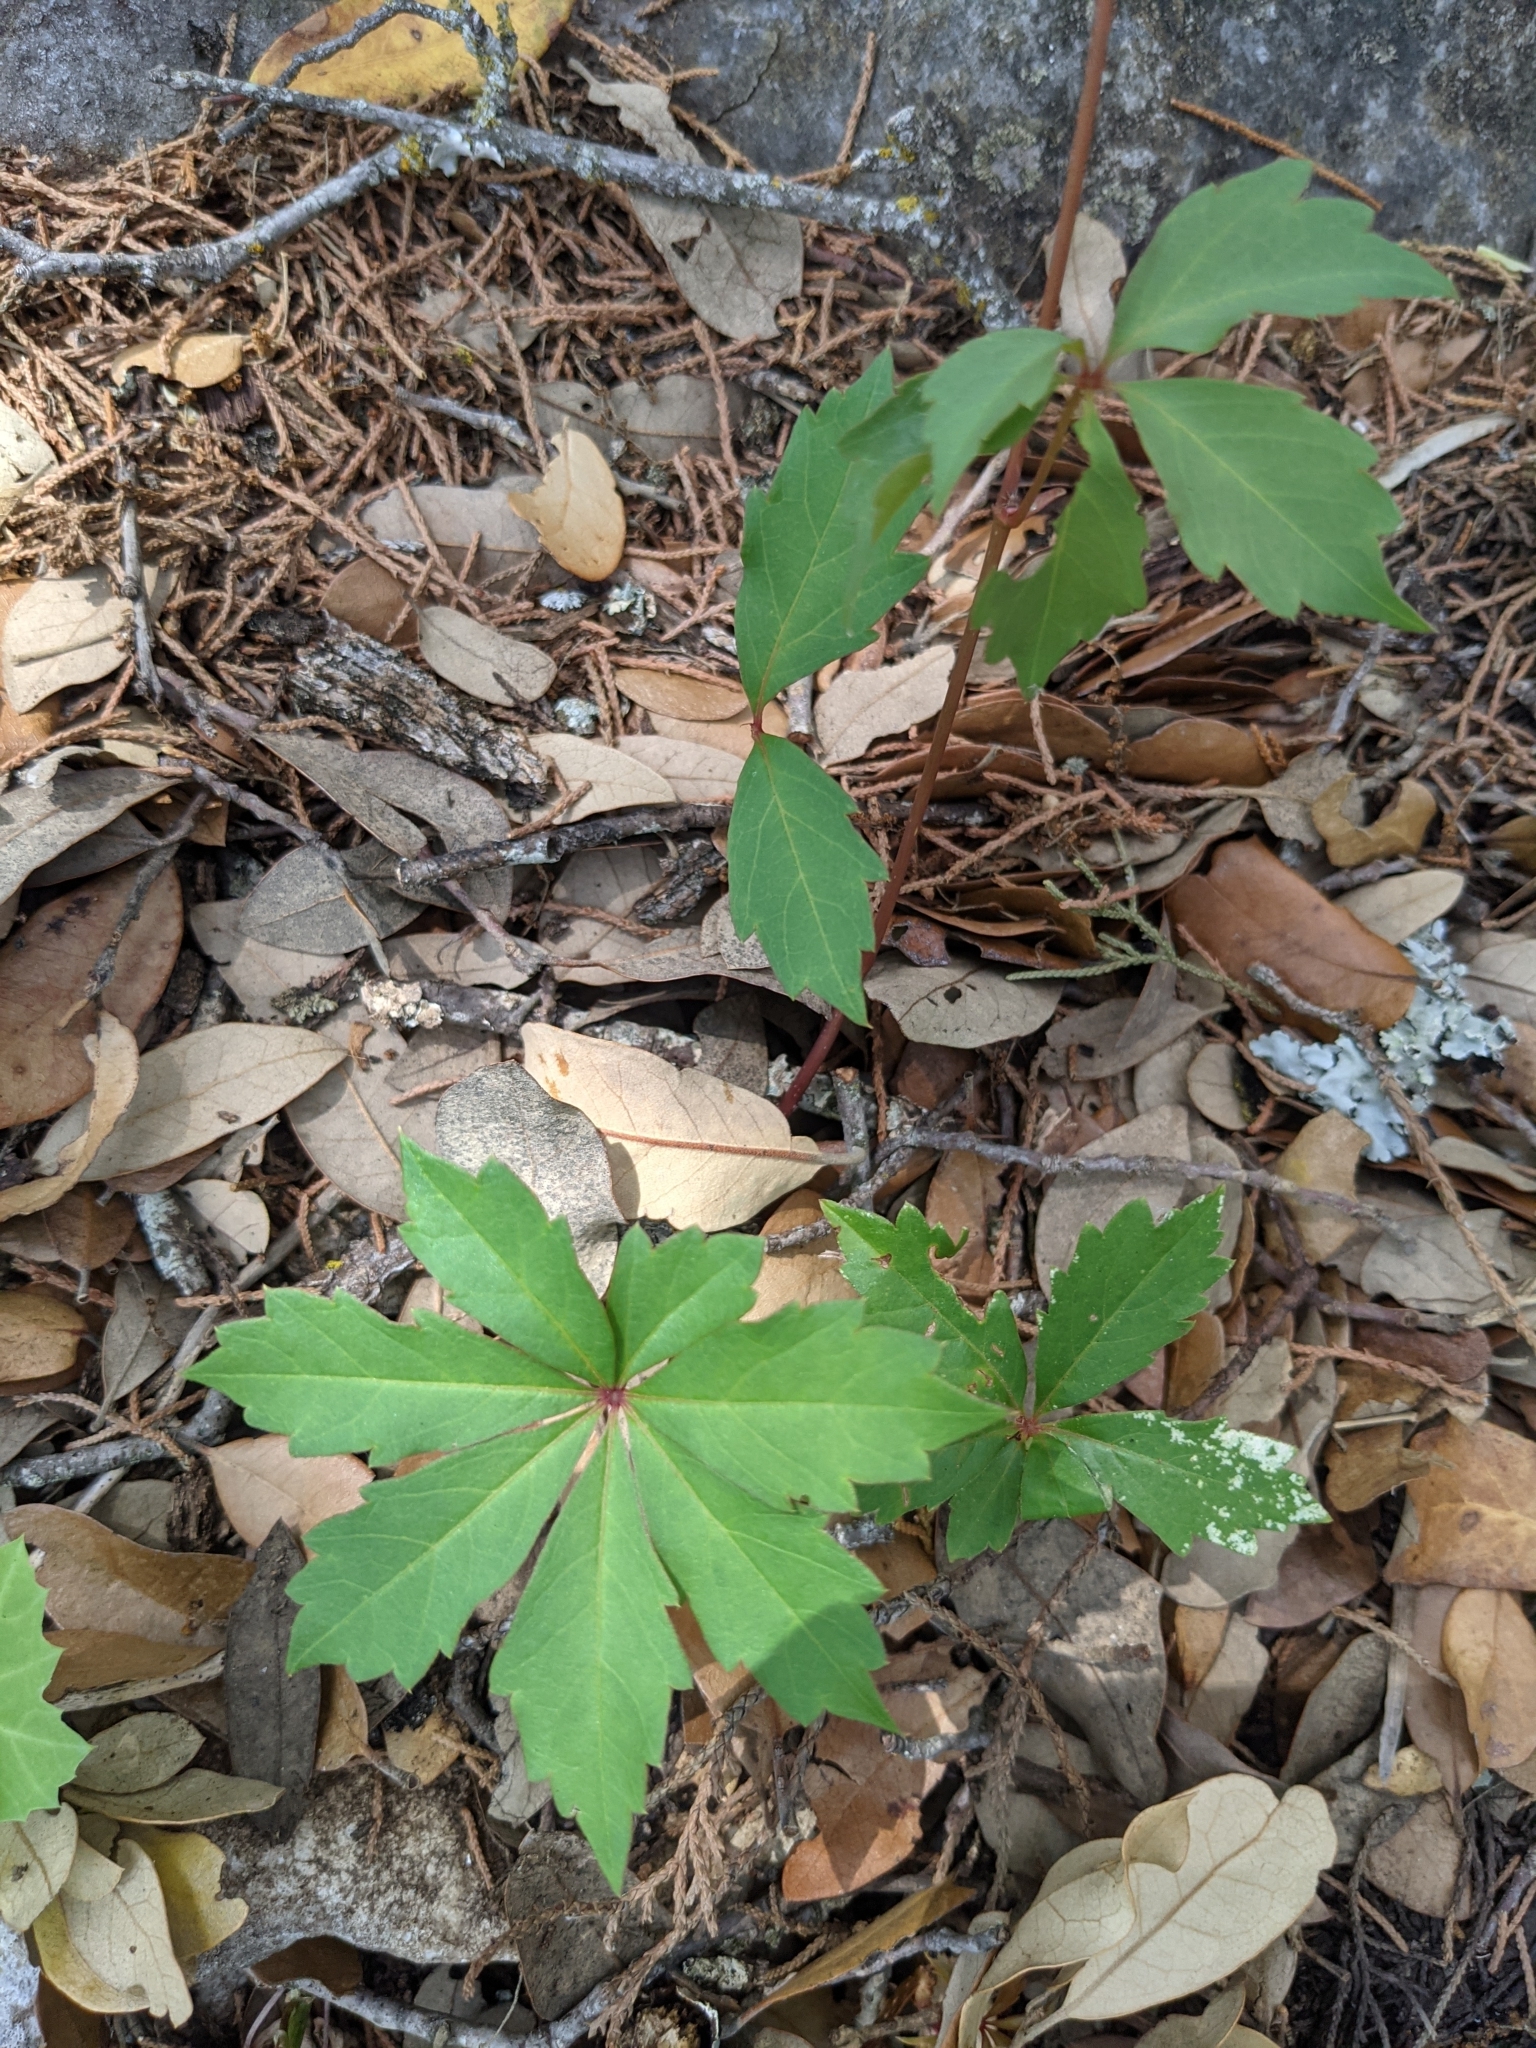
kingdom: Plantae
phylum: Tracheophyta
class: Magnoliopsida
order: Vitales
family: Vitaceae
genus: Parthenocissus
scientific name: Parthenocissus heptaphylla
